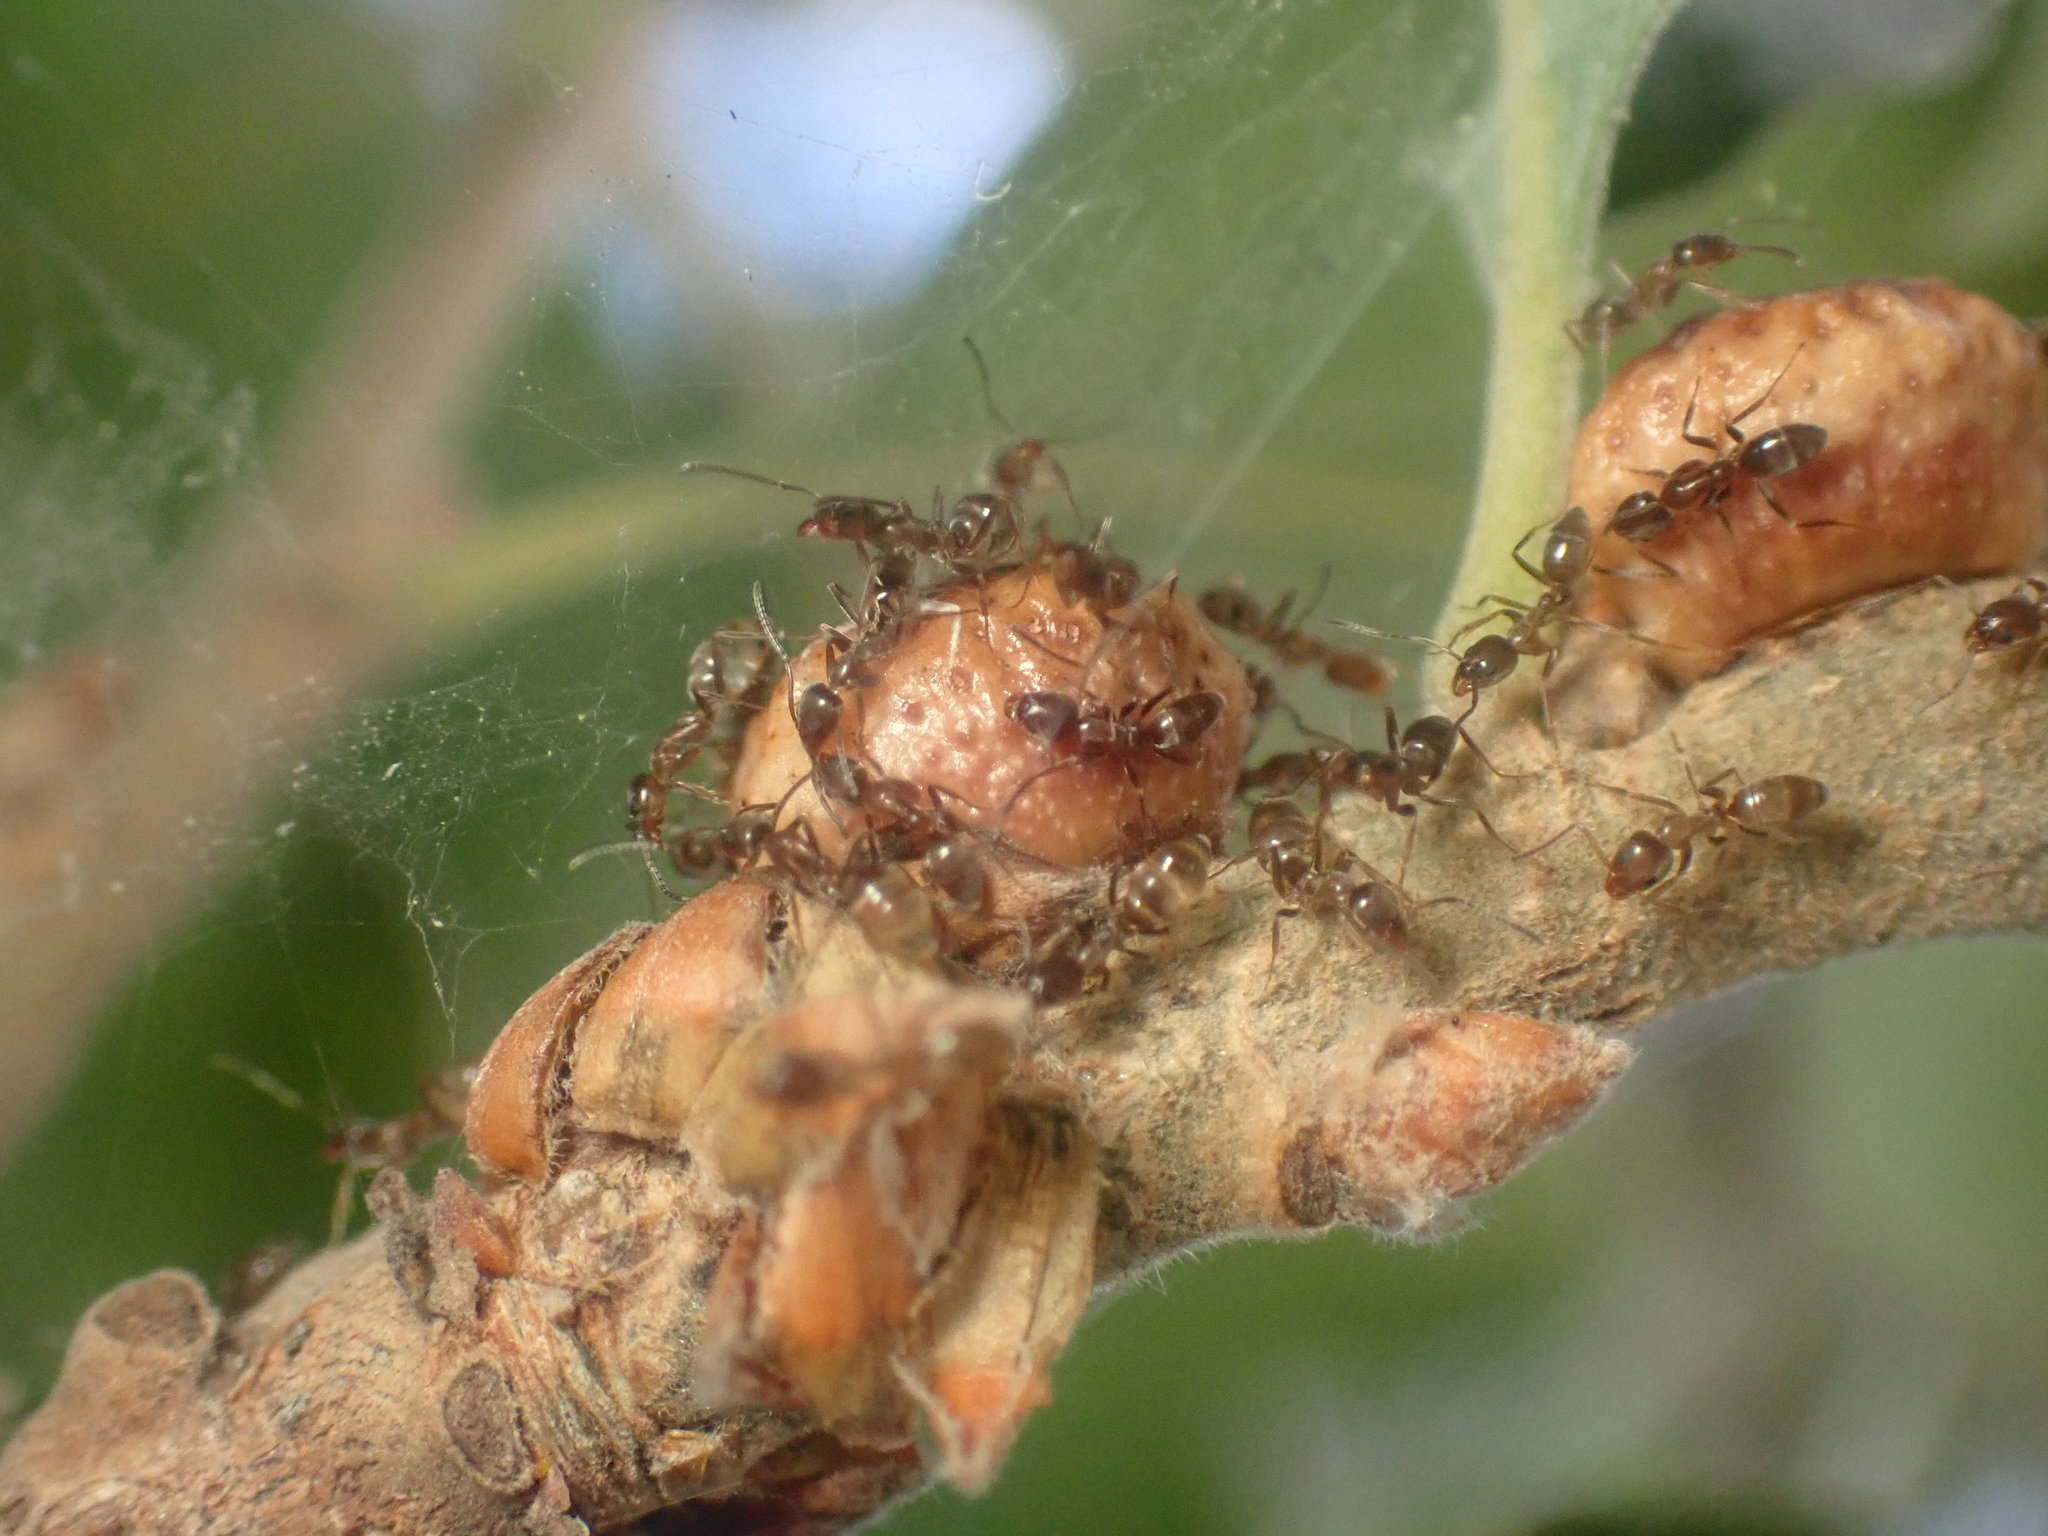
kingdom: Animalia
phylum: Arthropoda
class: Insecta
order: Hymenoptera
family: Cynipidae
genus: Disholcaspis
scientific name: Disholcaspis
